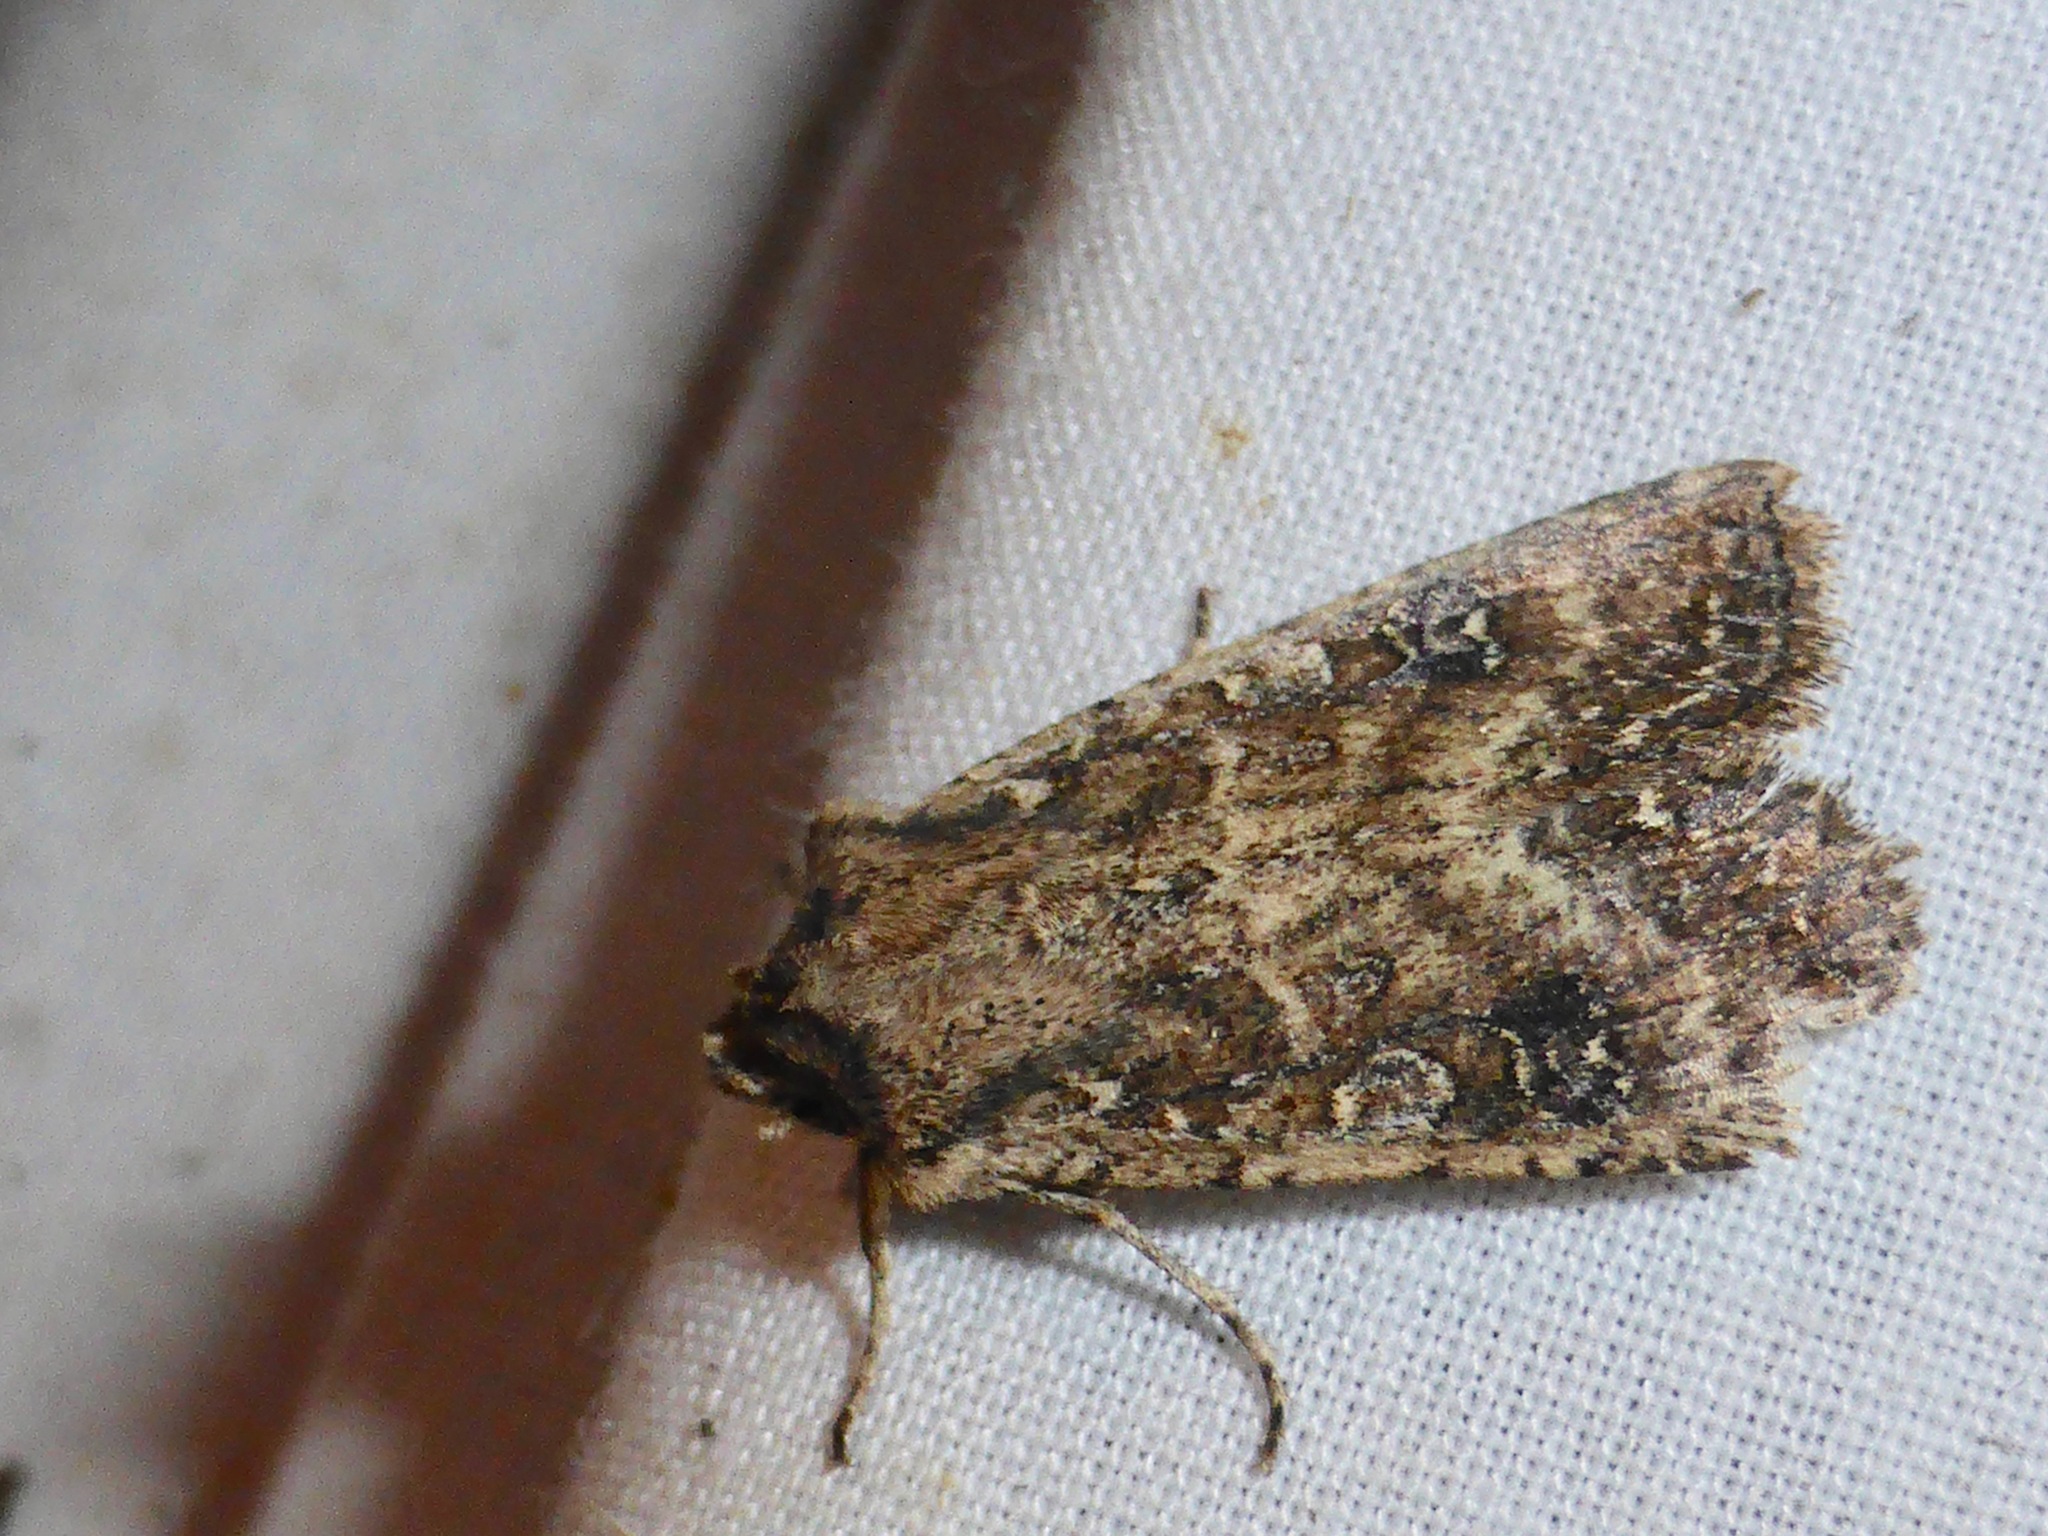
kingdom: Animalia
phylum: Arthropoda
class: Insecta
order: Lepidoptera
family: Noctuidae
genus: Ichneutica
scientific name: Ichneutica morosa
